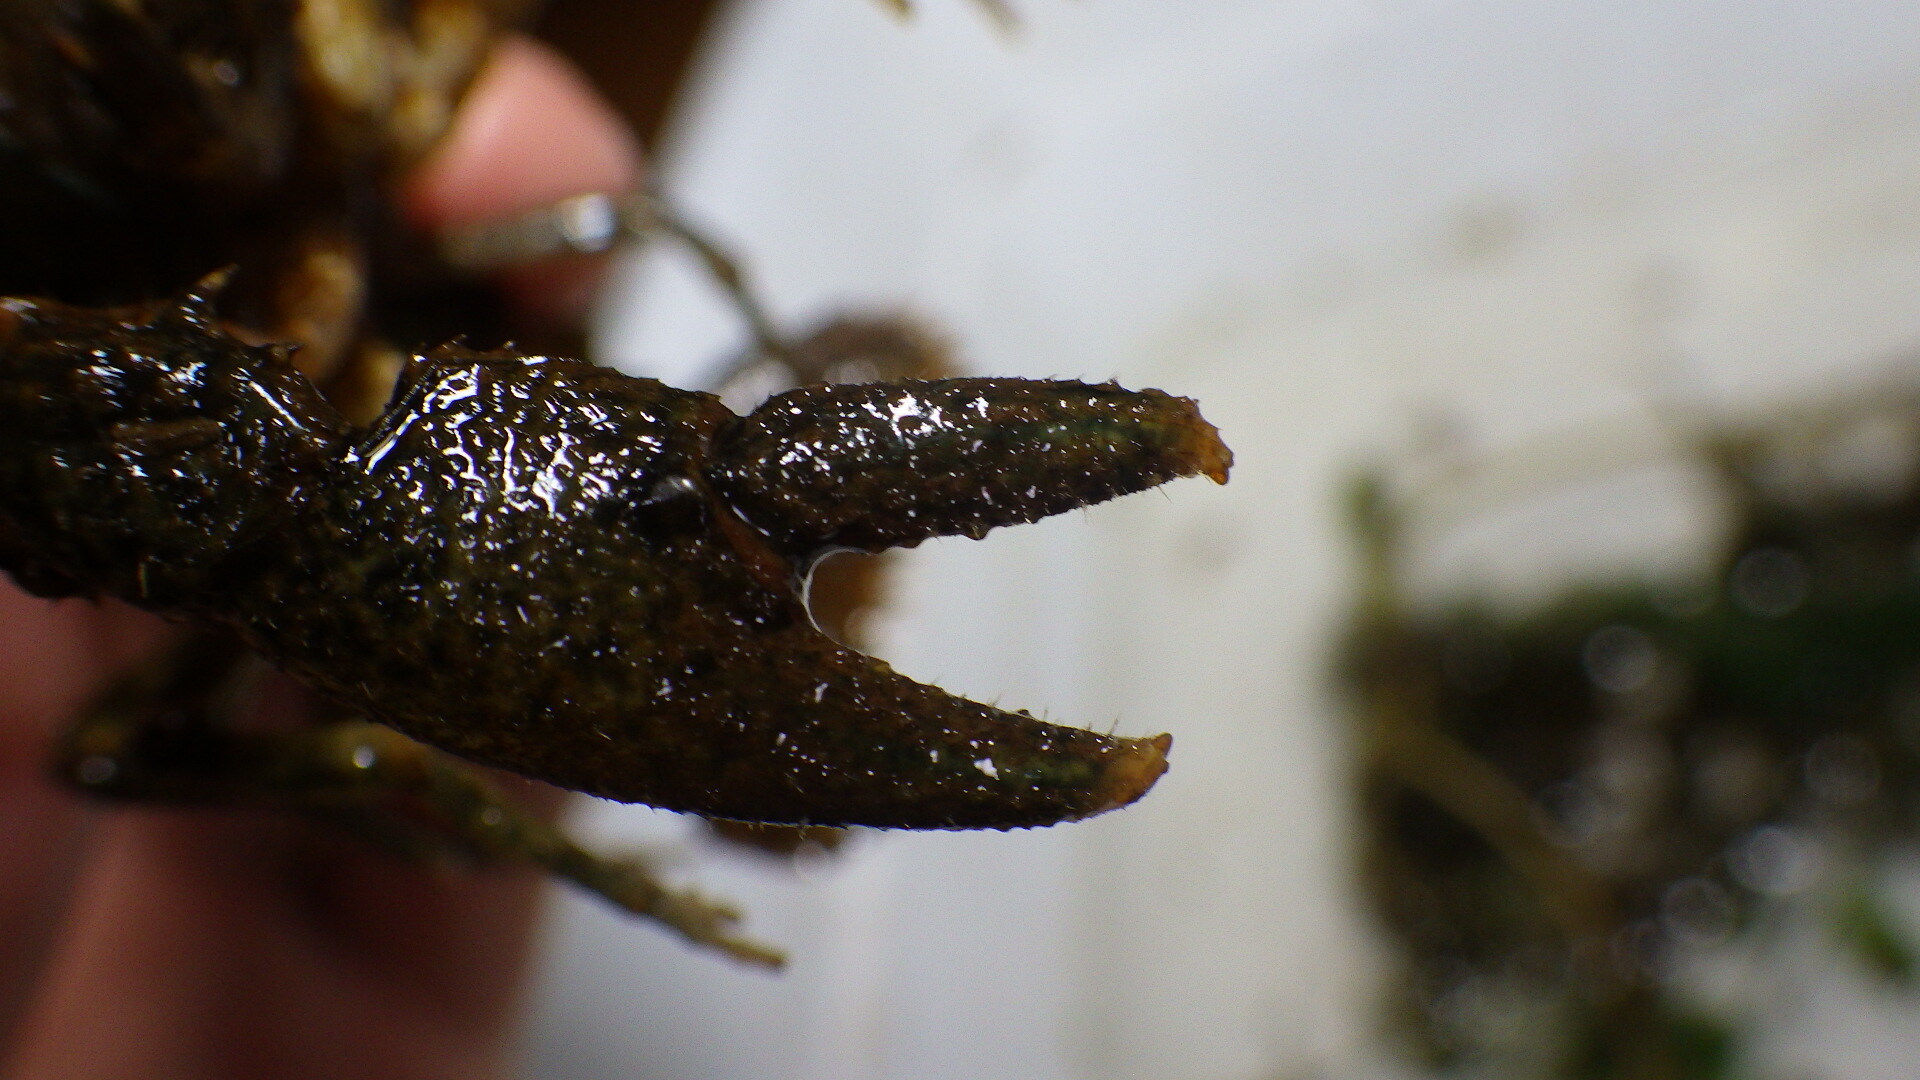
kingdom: Animalia
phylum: Arthropoda
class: Malacostraca
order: Decapoda
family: Cambaridae
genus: Faxonius
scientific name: Faxonius limosus
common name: American crayfish
